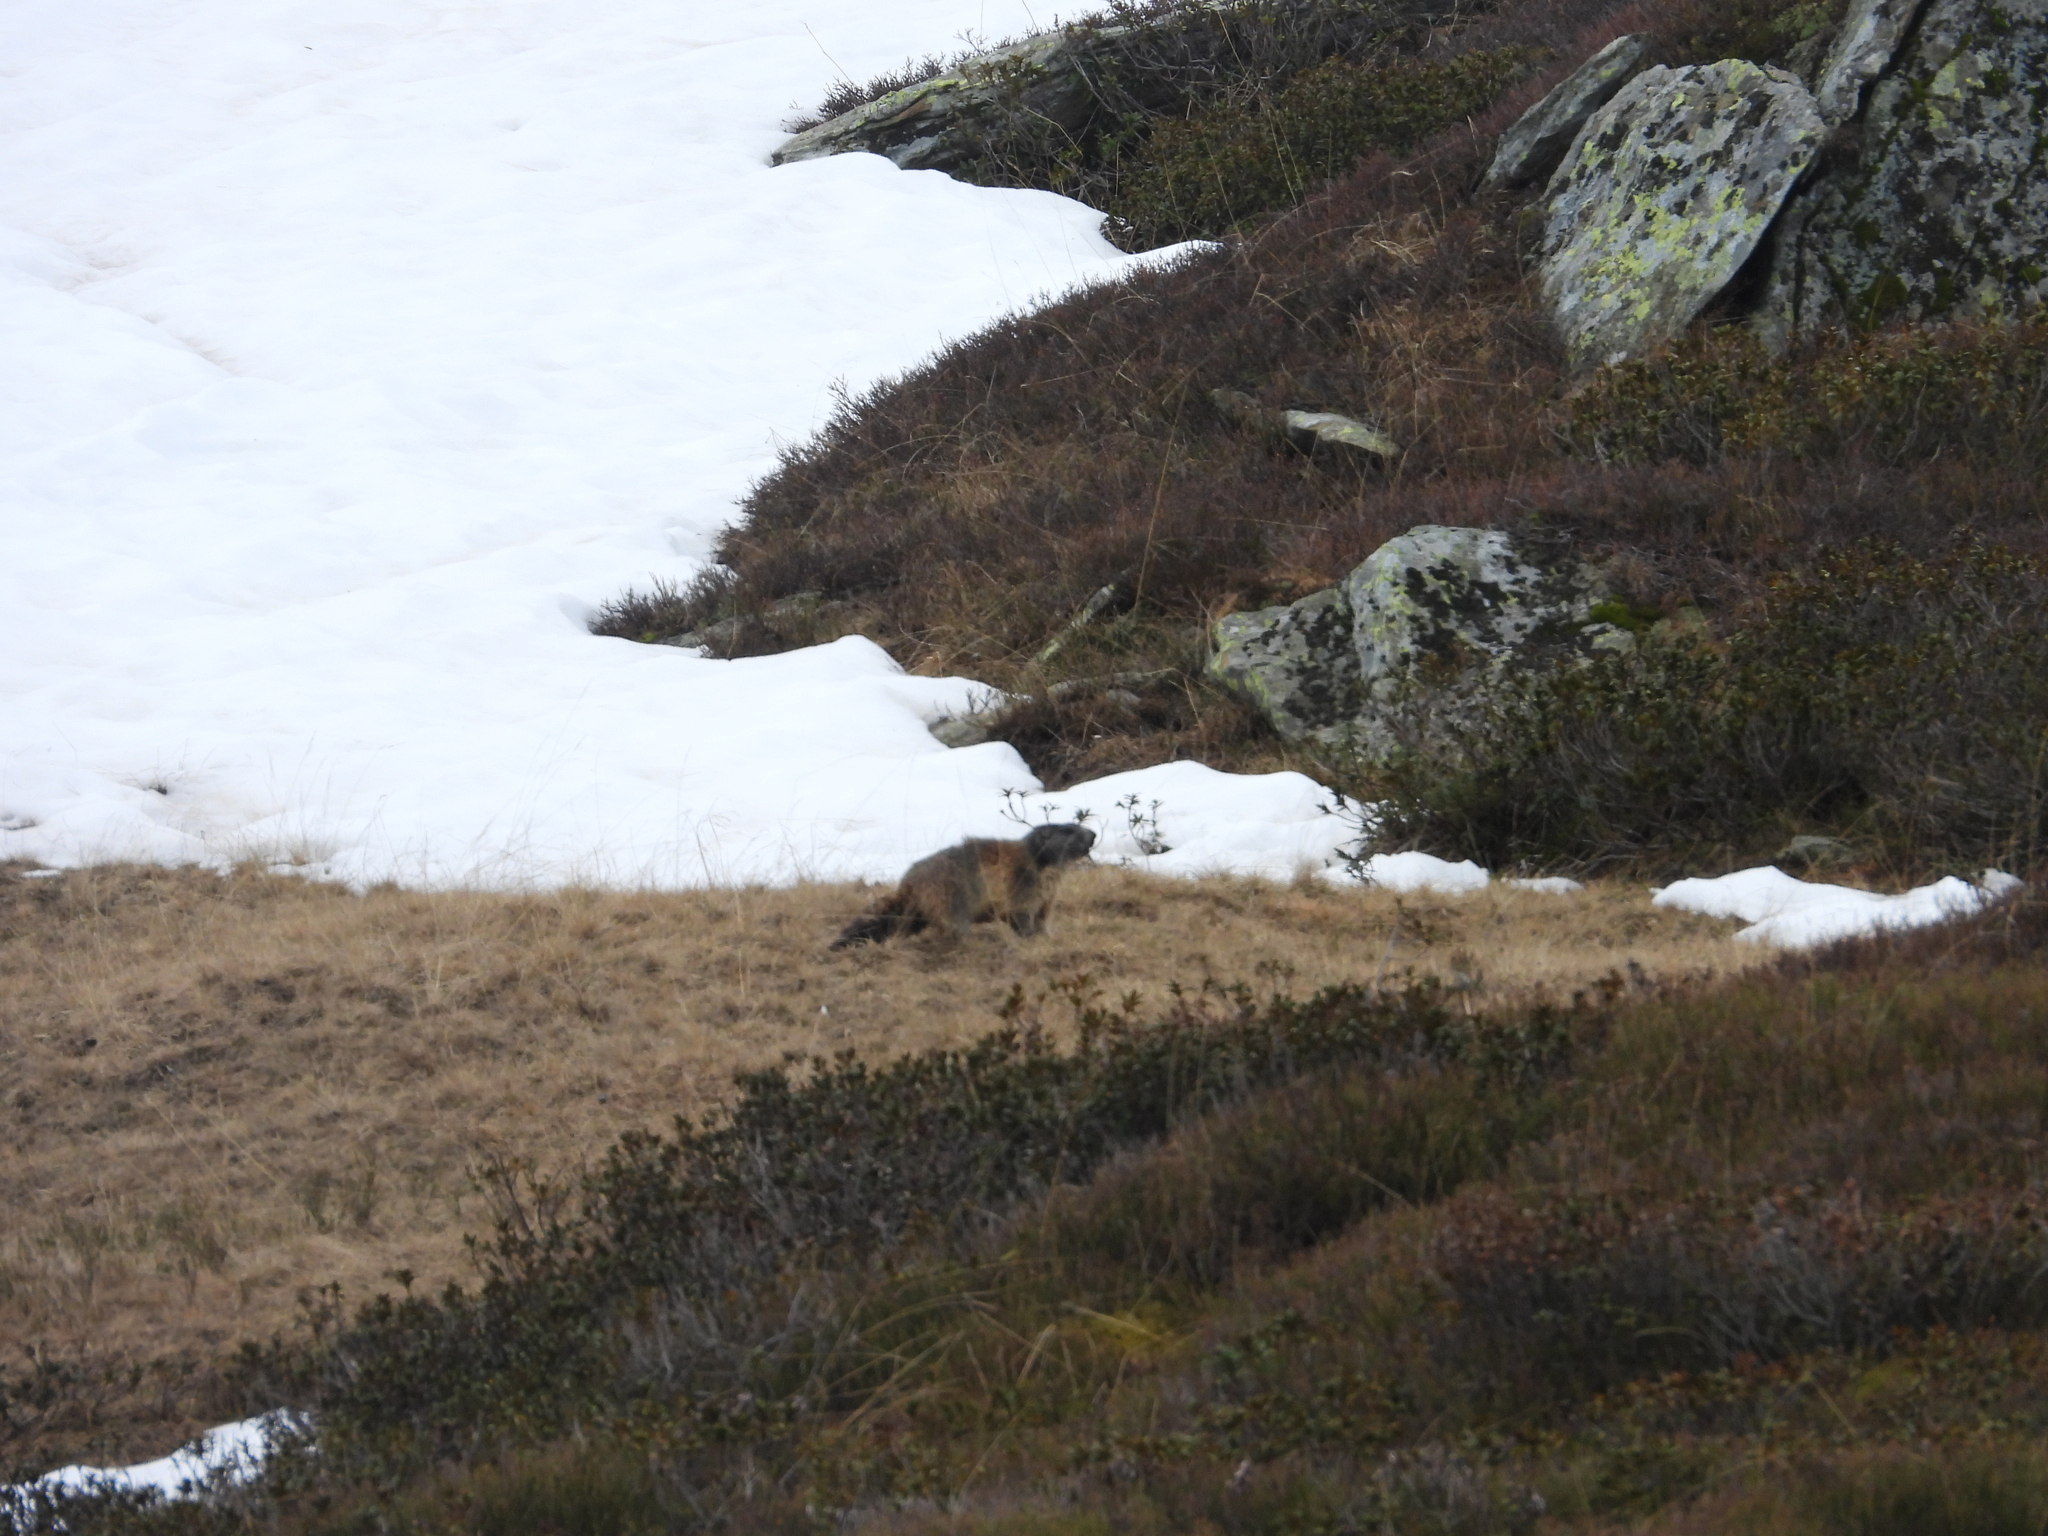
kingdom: Animalia
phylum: Chordata
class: Mammalia
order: Rodentia
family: Sciuridae
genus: Marmota
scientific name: Marmota marmota
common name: Alpine marmot
